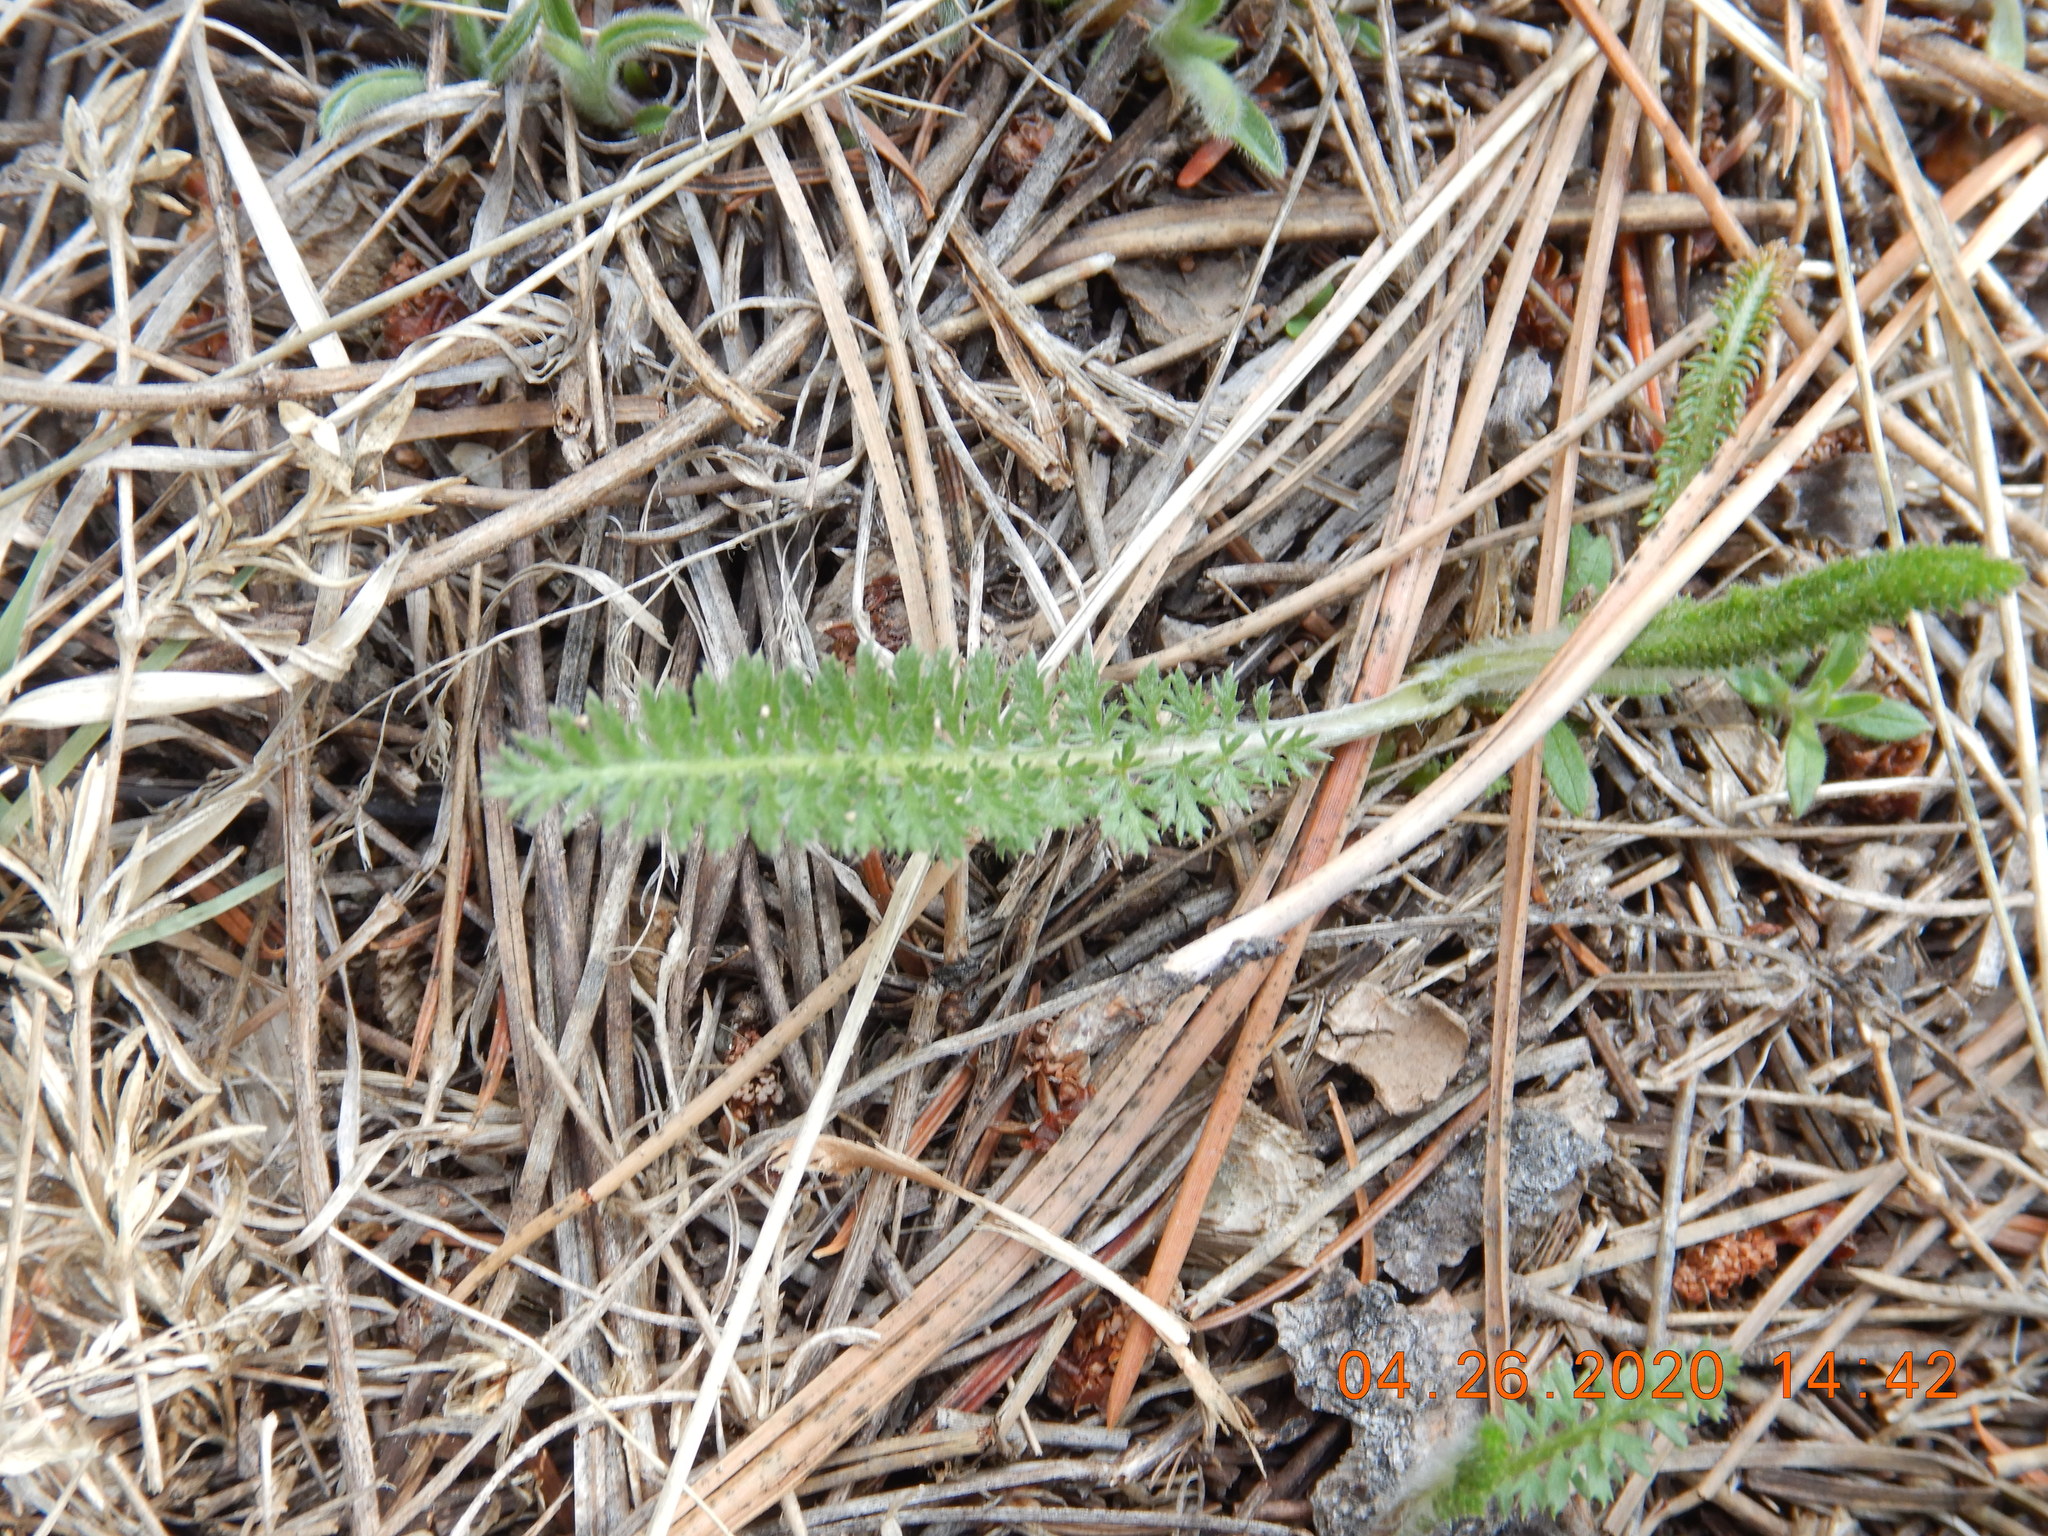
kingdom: Plantae
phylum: Tracheophyta
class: Magnoliopsida
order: Asterales
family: Asteraceae
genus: Achillea
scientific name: Achillea millefolium
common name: Yarrow
